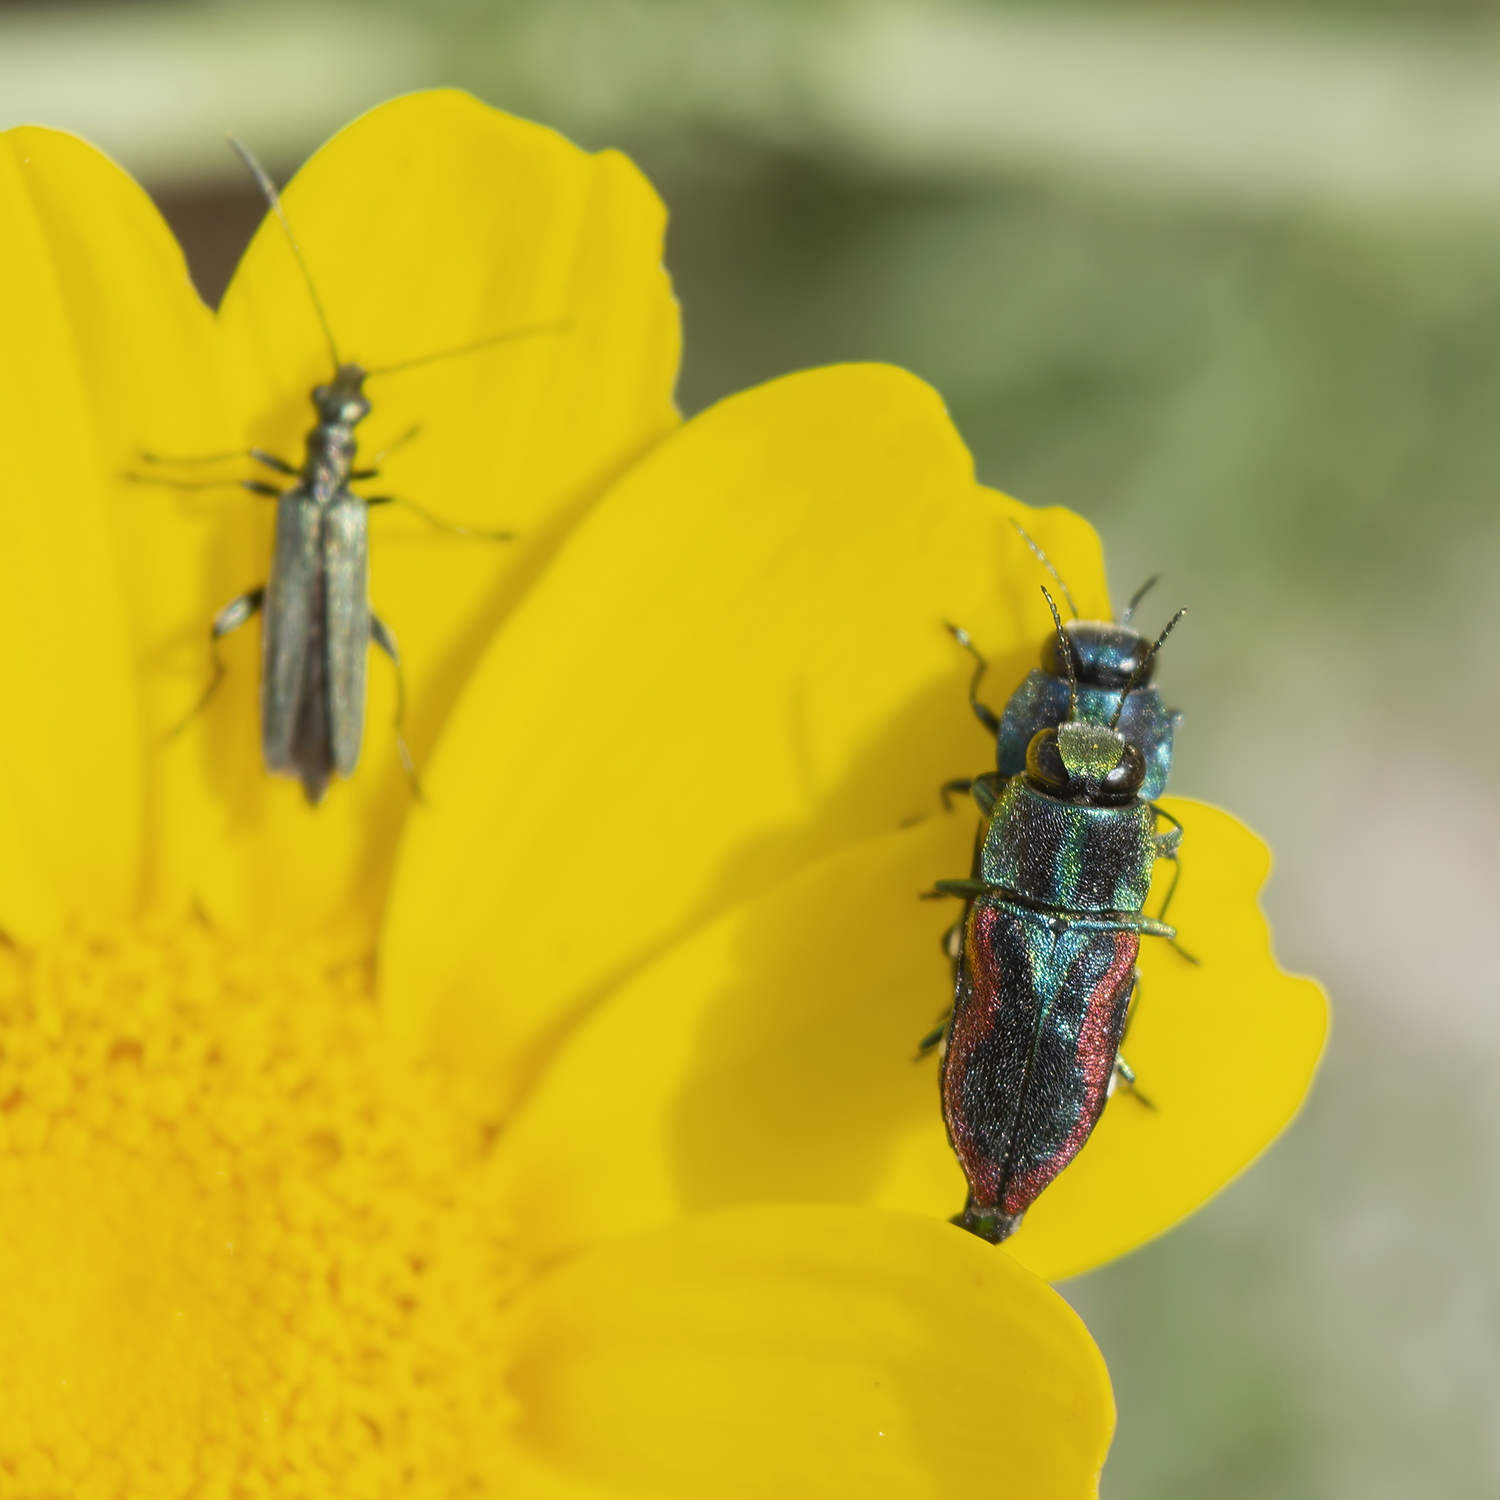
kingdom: Animalia
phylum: Arthropoda
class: Insecta
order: Coleoptera
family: Buprestidae
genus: Anthaxia
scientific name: Anthaxia lucens
